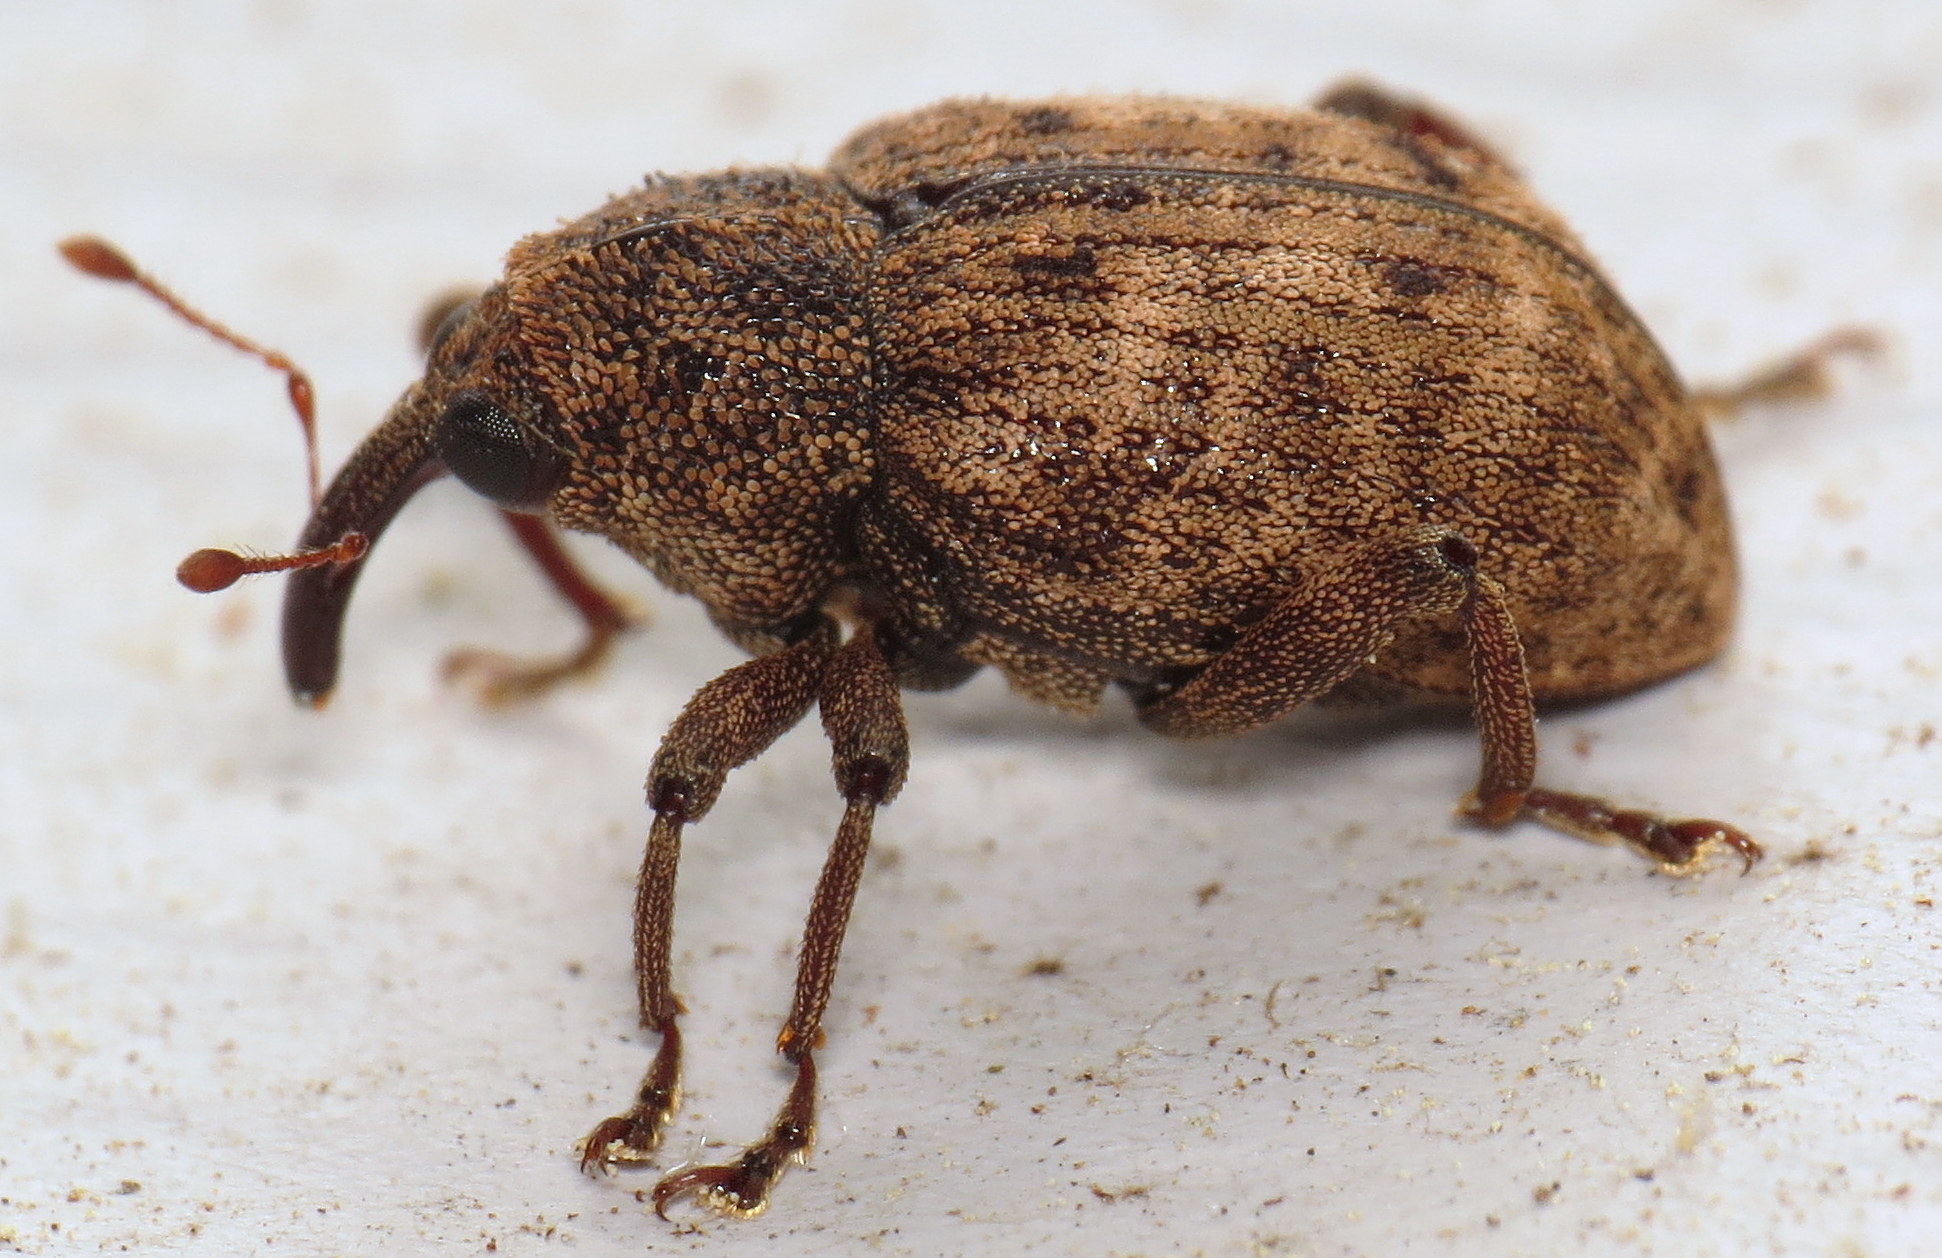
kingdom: Animalia
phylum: Arthropoda
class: Insecta
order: Coleoptera
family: Curculionidae
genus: Cryptorhynchus
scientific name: Cryptorhynchus helvus
